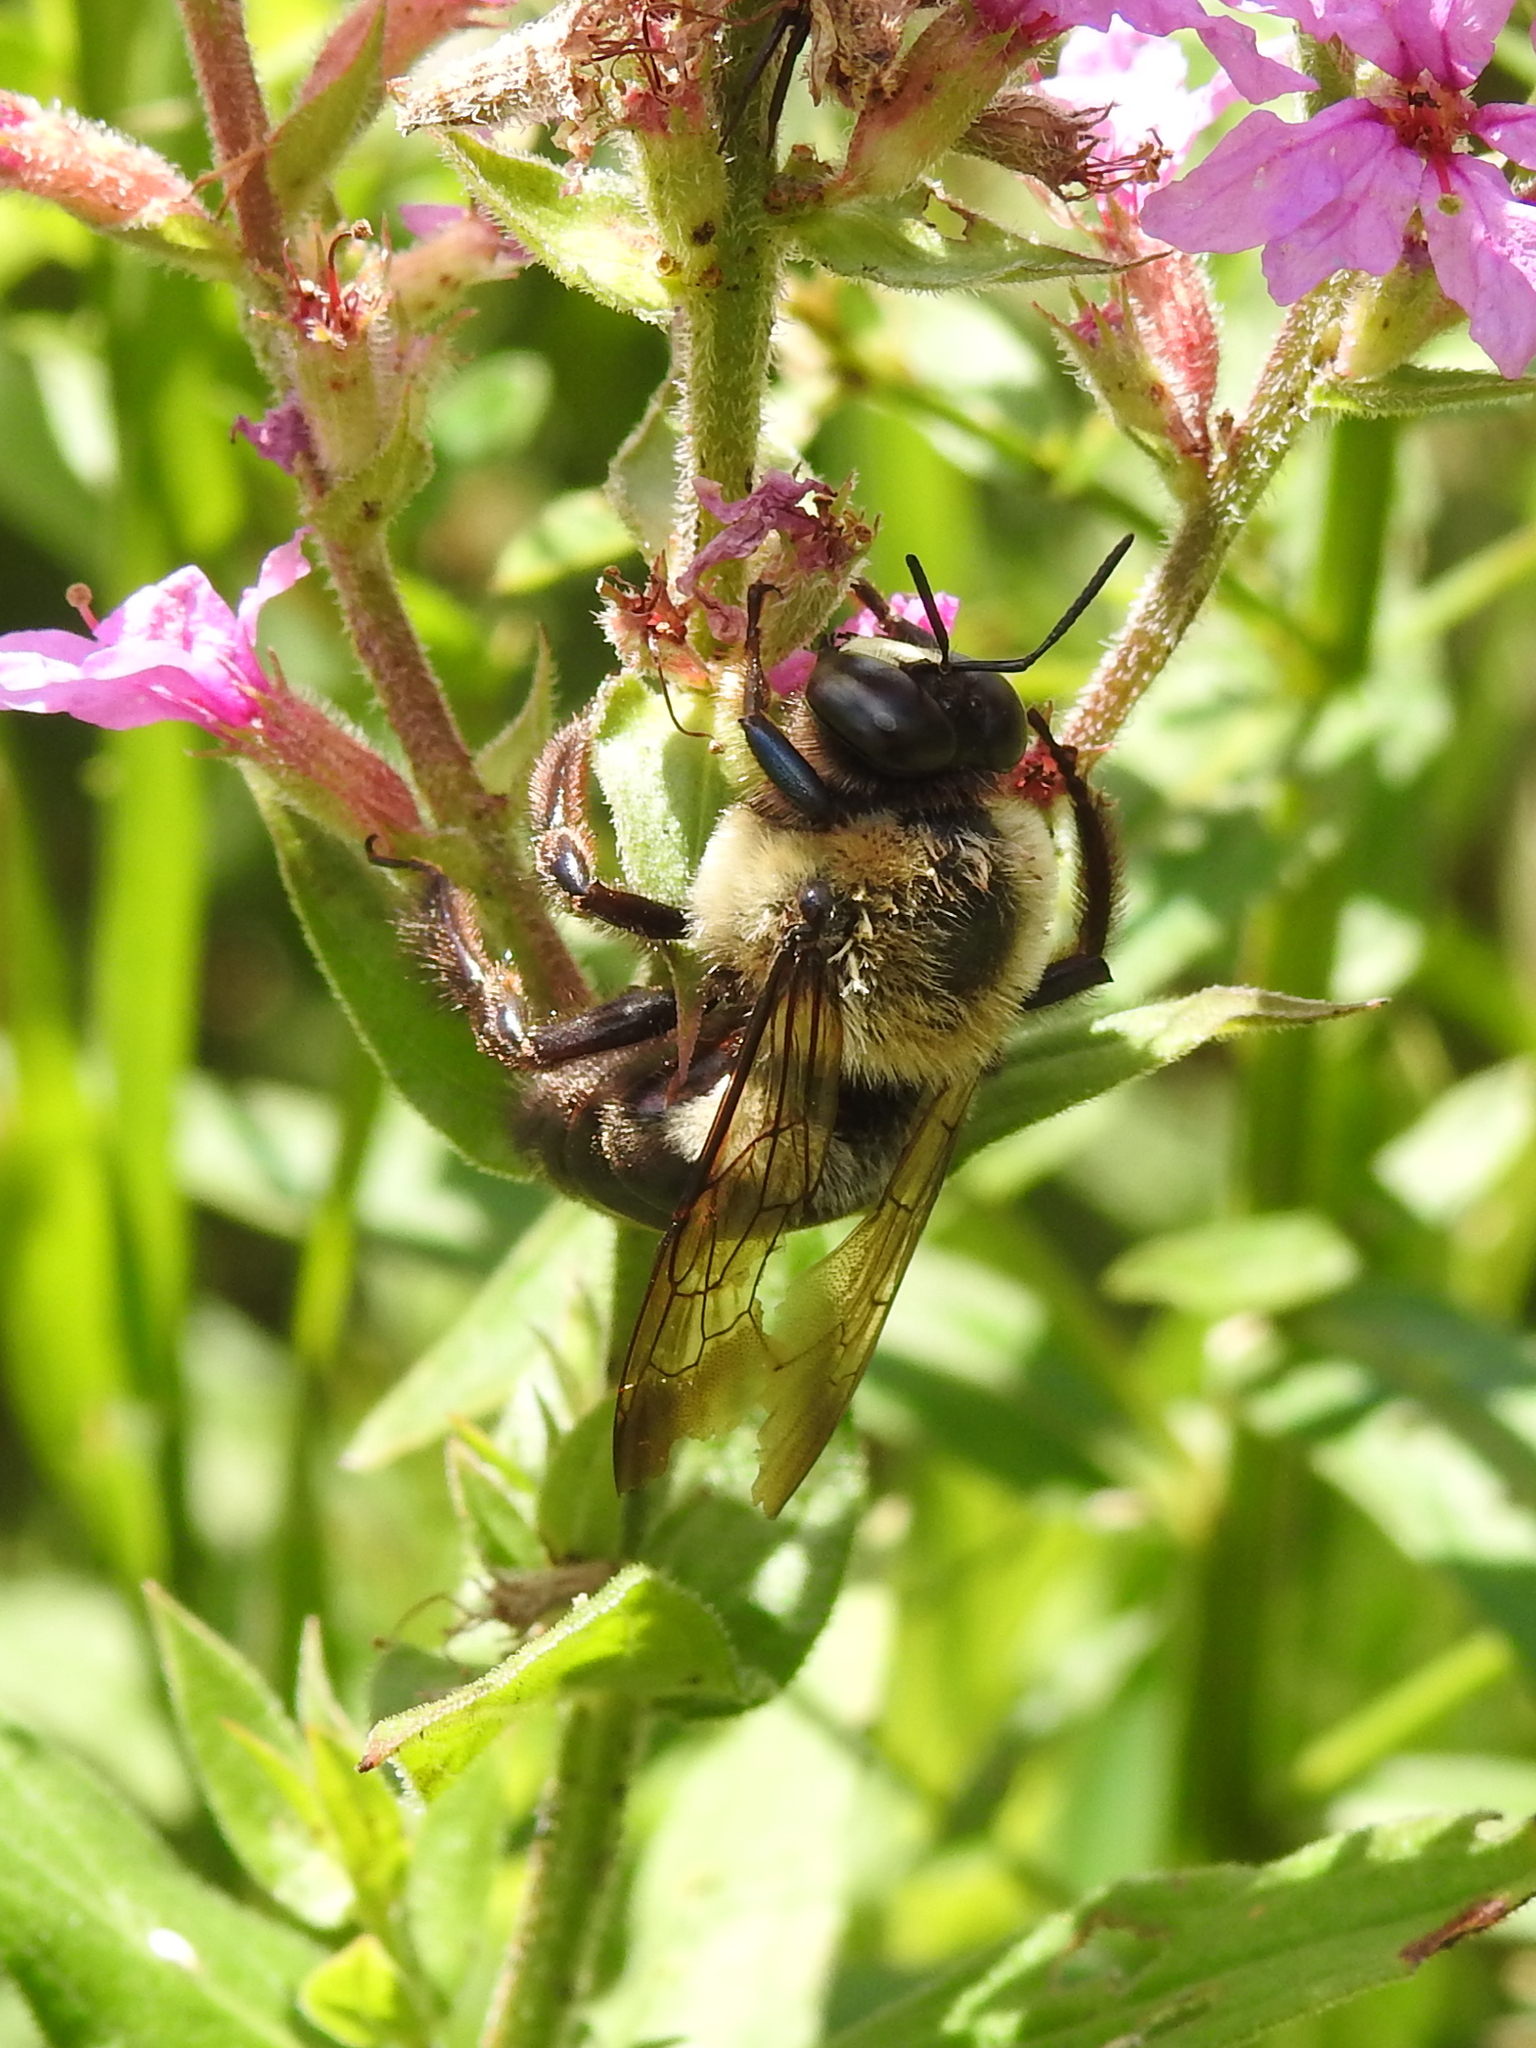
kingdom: Animalia
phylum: Arthropoda
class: Insecta
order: Hymenoptera
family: Apidae
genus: Xylocopa
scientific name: Xylocopa virginica
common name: Carpenter bee
